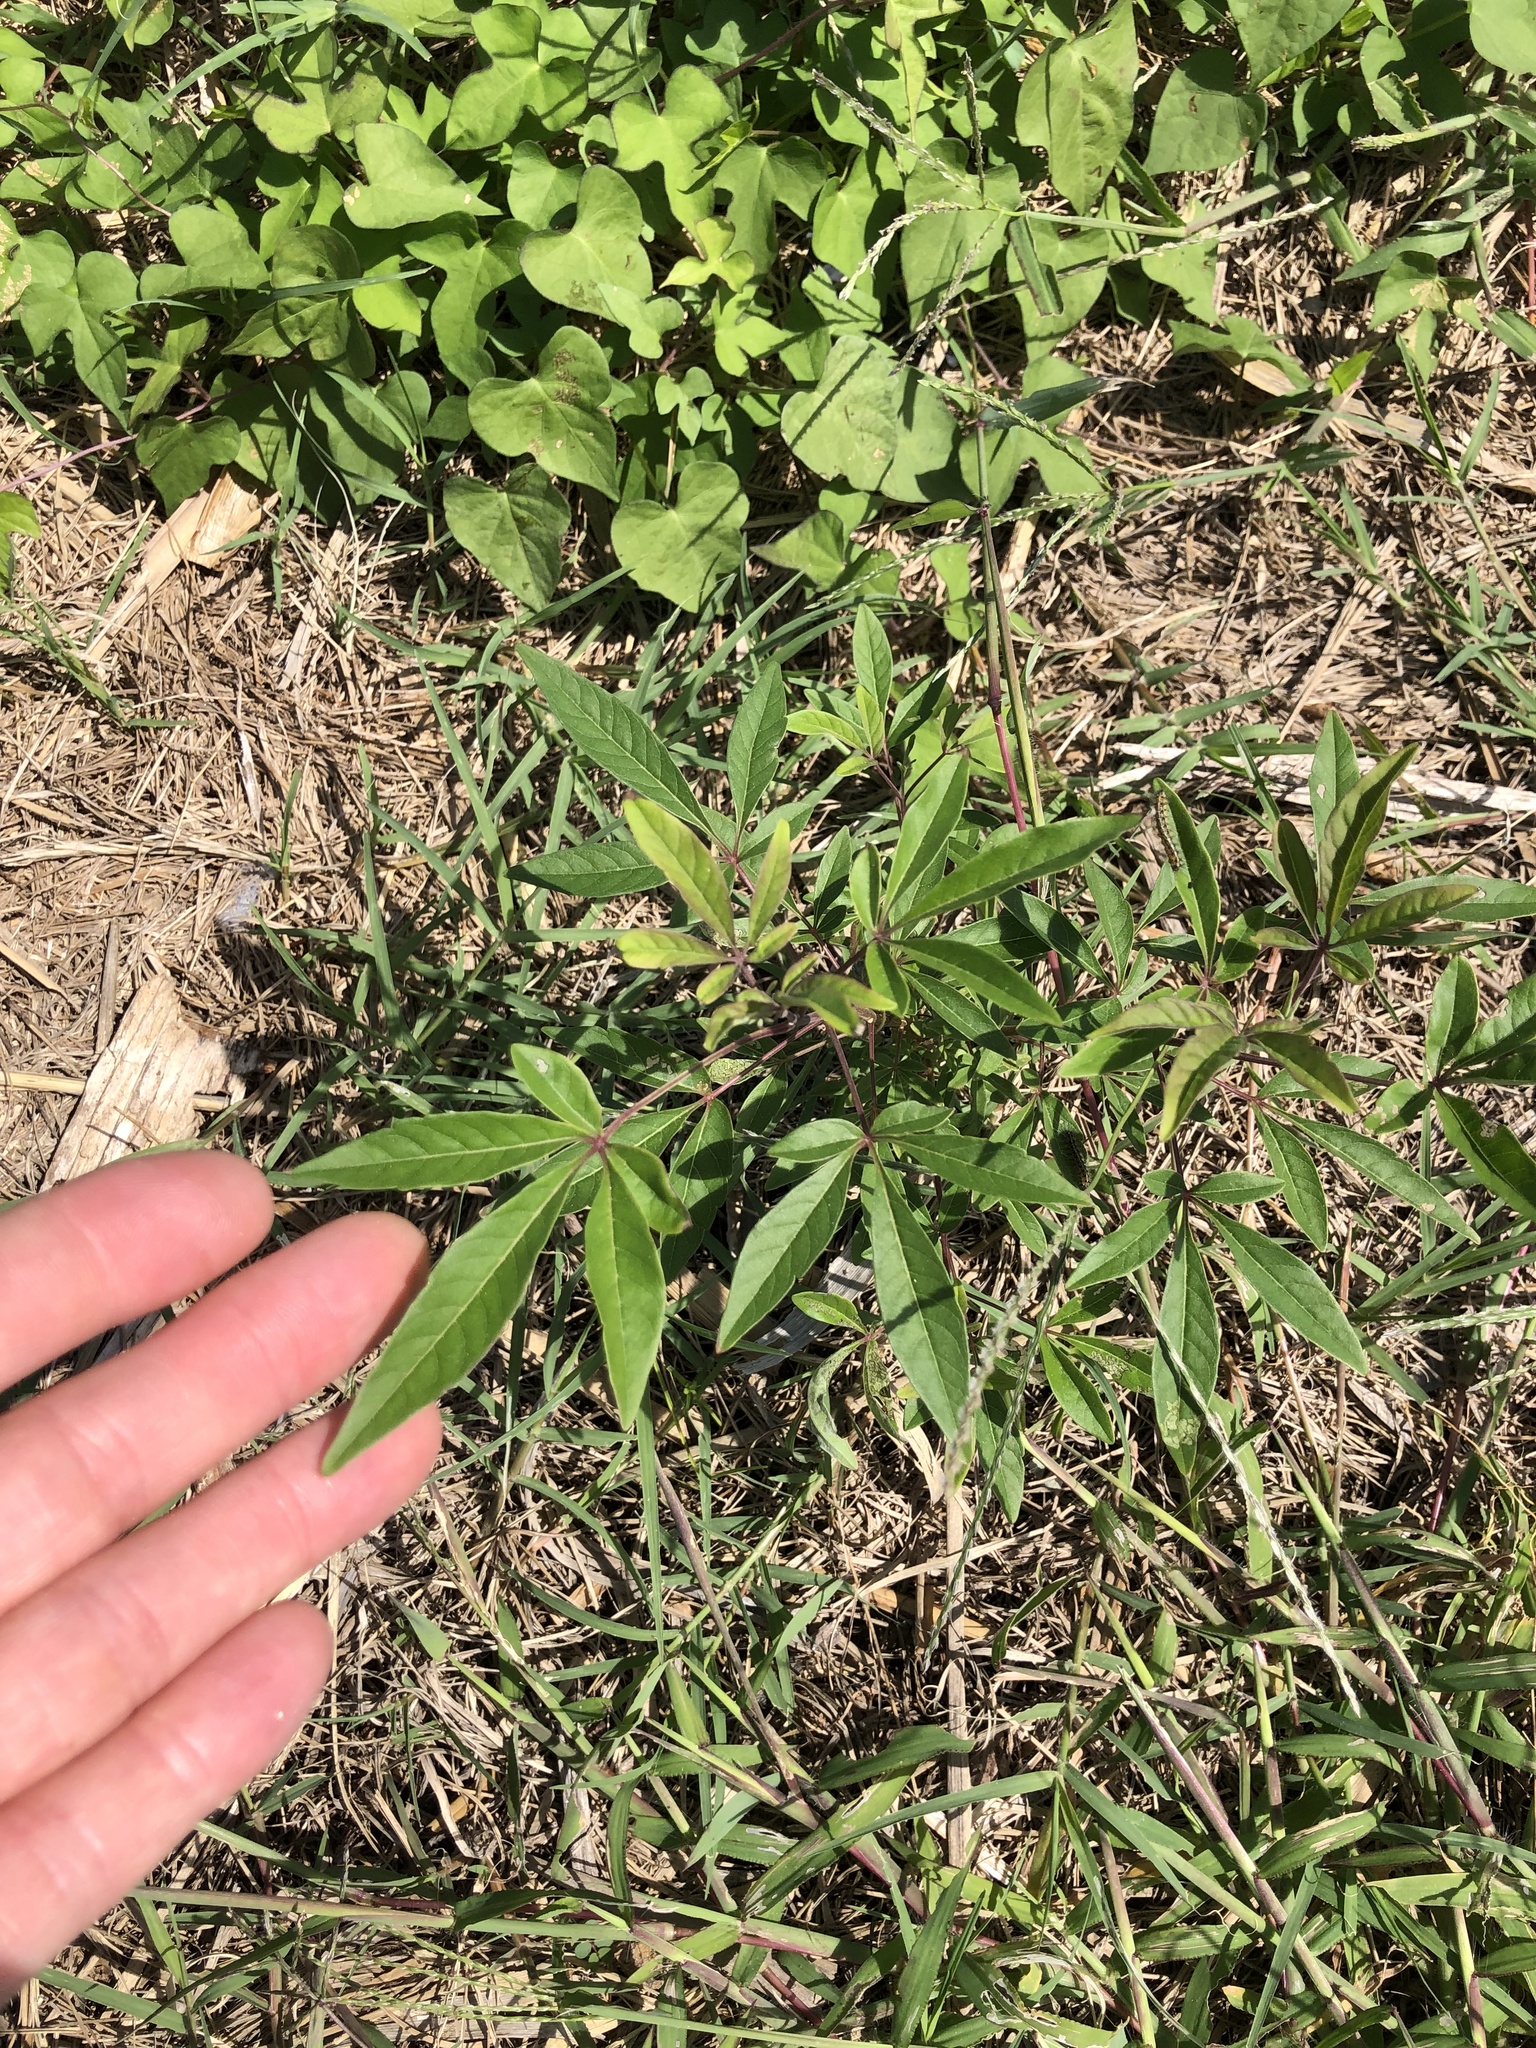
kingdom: Plantae
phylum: Tracheophyta
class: Magnoliopsida
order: Lamiales
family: Lamiaceae
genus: Vitex
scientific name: Vitex agnus-castus
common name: Chasteberry
